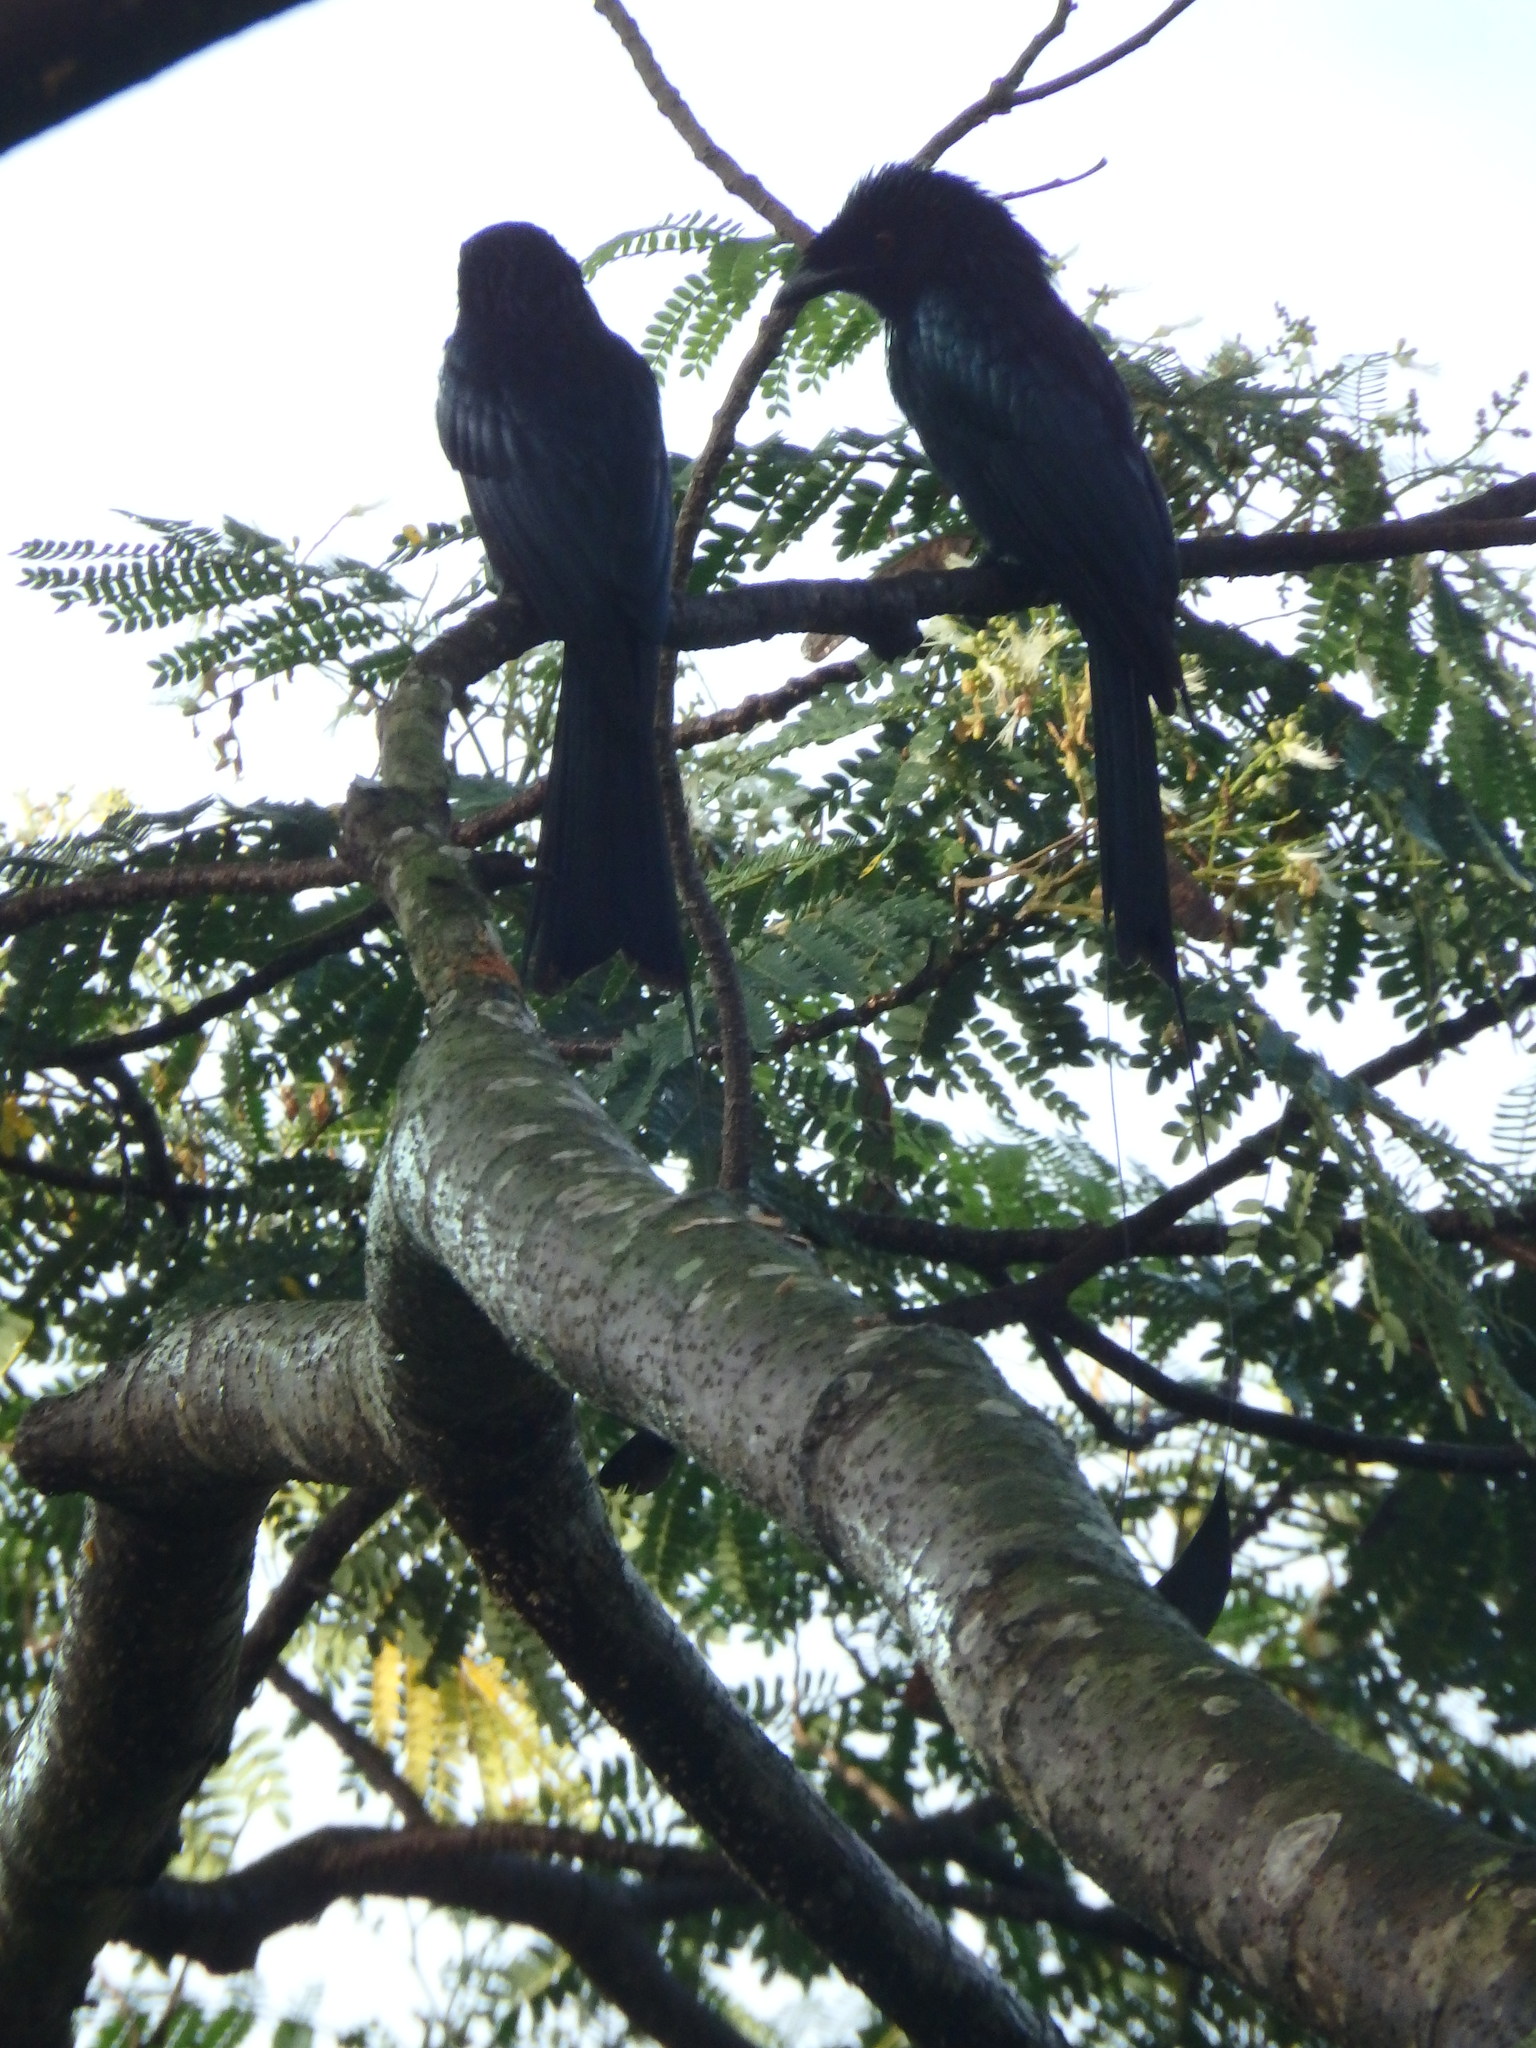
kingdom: Animalia
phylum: Chordata
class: Aves
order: Passeriformes
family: Dicruridae
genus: Dicrurus
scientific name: Dicrurus paradiseus
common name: Greater racket-tailed drongo
